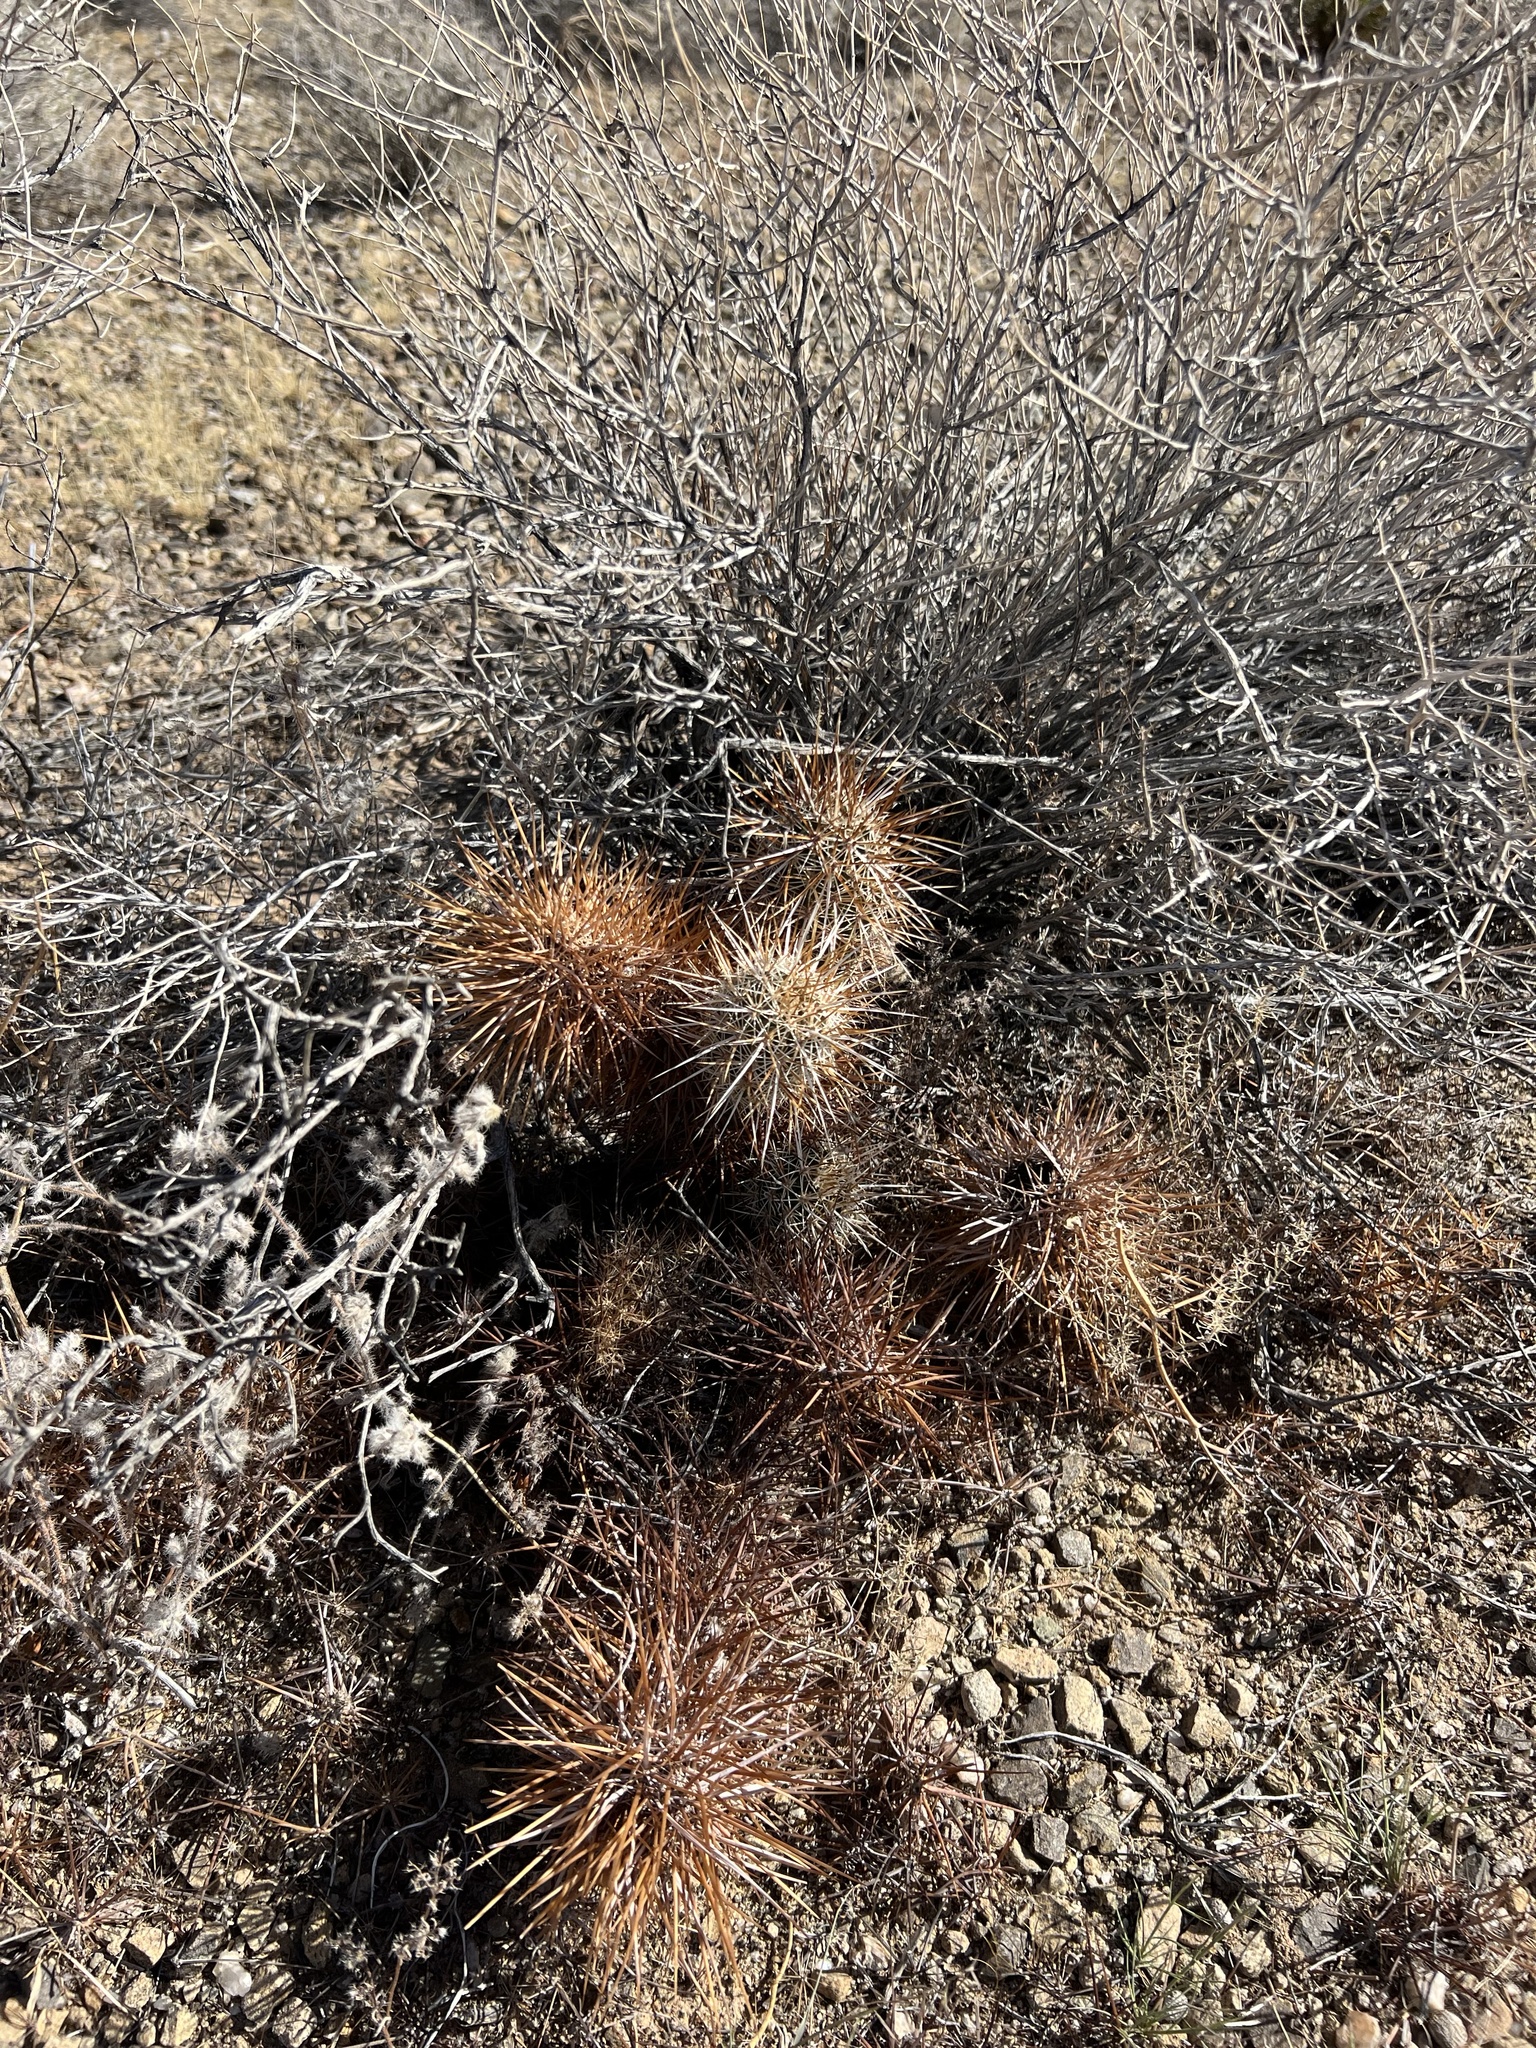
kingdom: Plantae
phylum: Tracheophyta
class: Magnoliopsida
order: Caryophyllales
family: Cactaceae
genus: Echinocereus
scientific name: Echinocereus engelmannii
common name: Engelmann's hedgehog cactus
